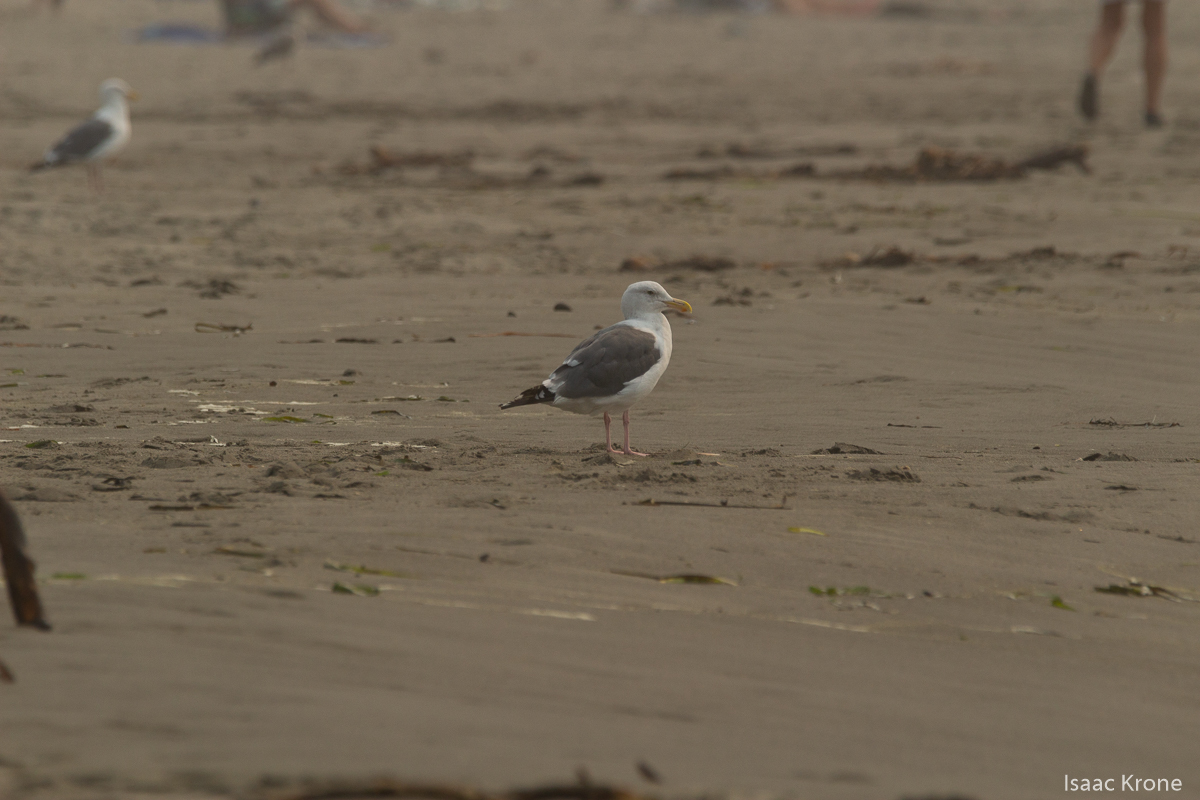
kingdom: Animalia
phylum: Chordata
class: Aves
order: Charadriiformes
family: Laridae
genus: Larus
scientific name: Larus occidentalis
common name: Western gull
